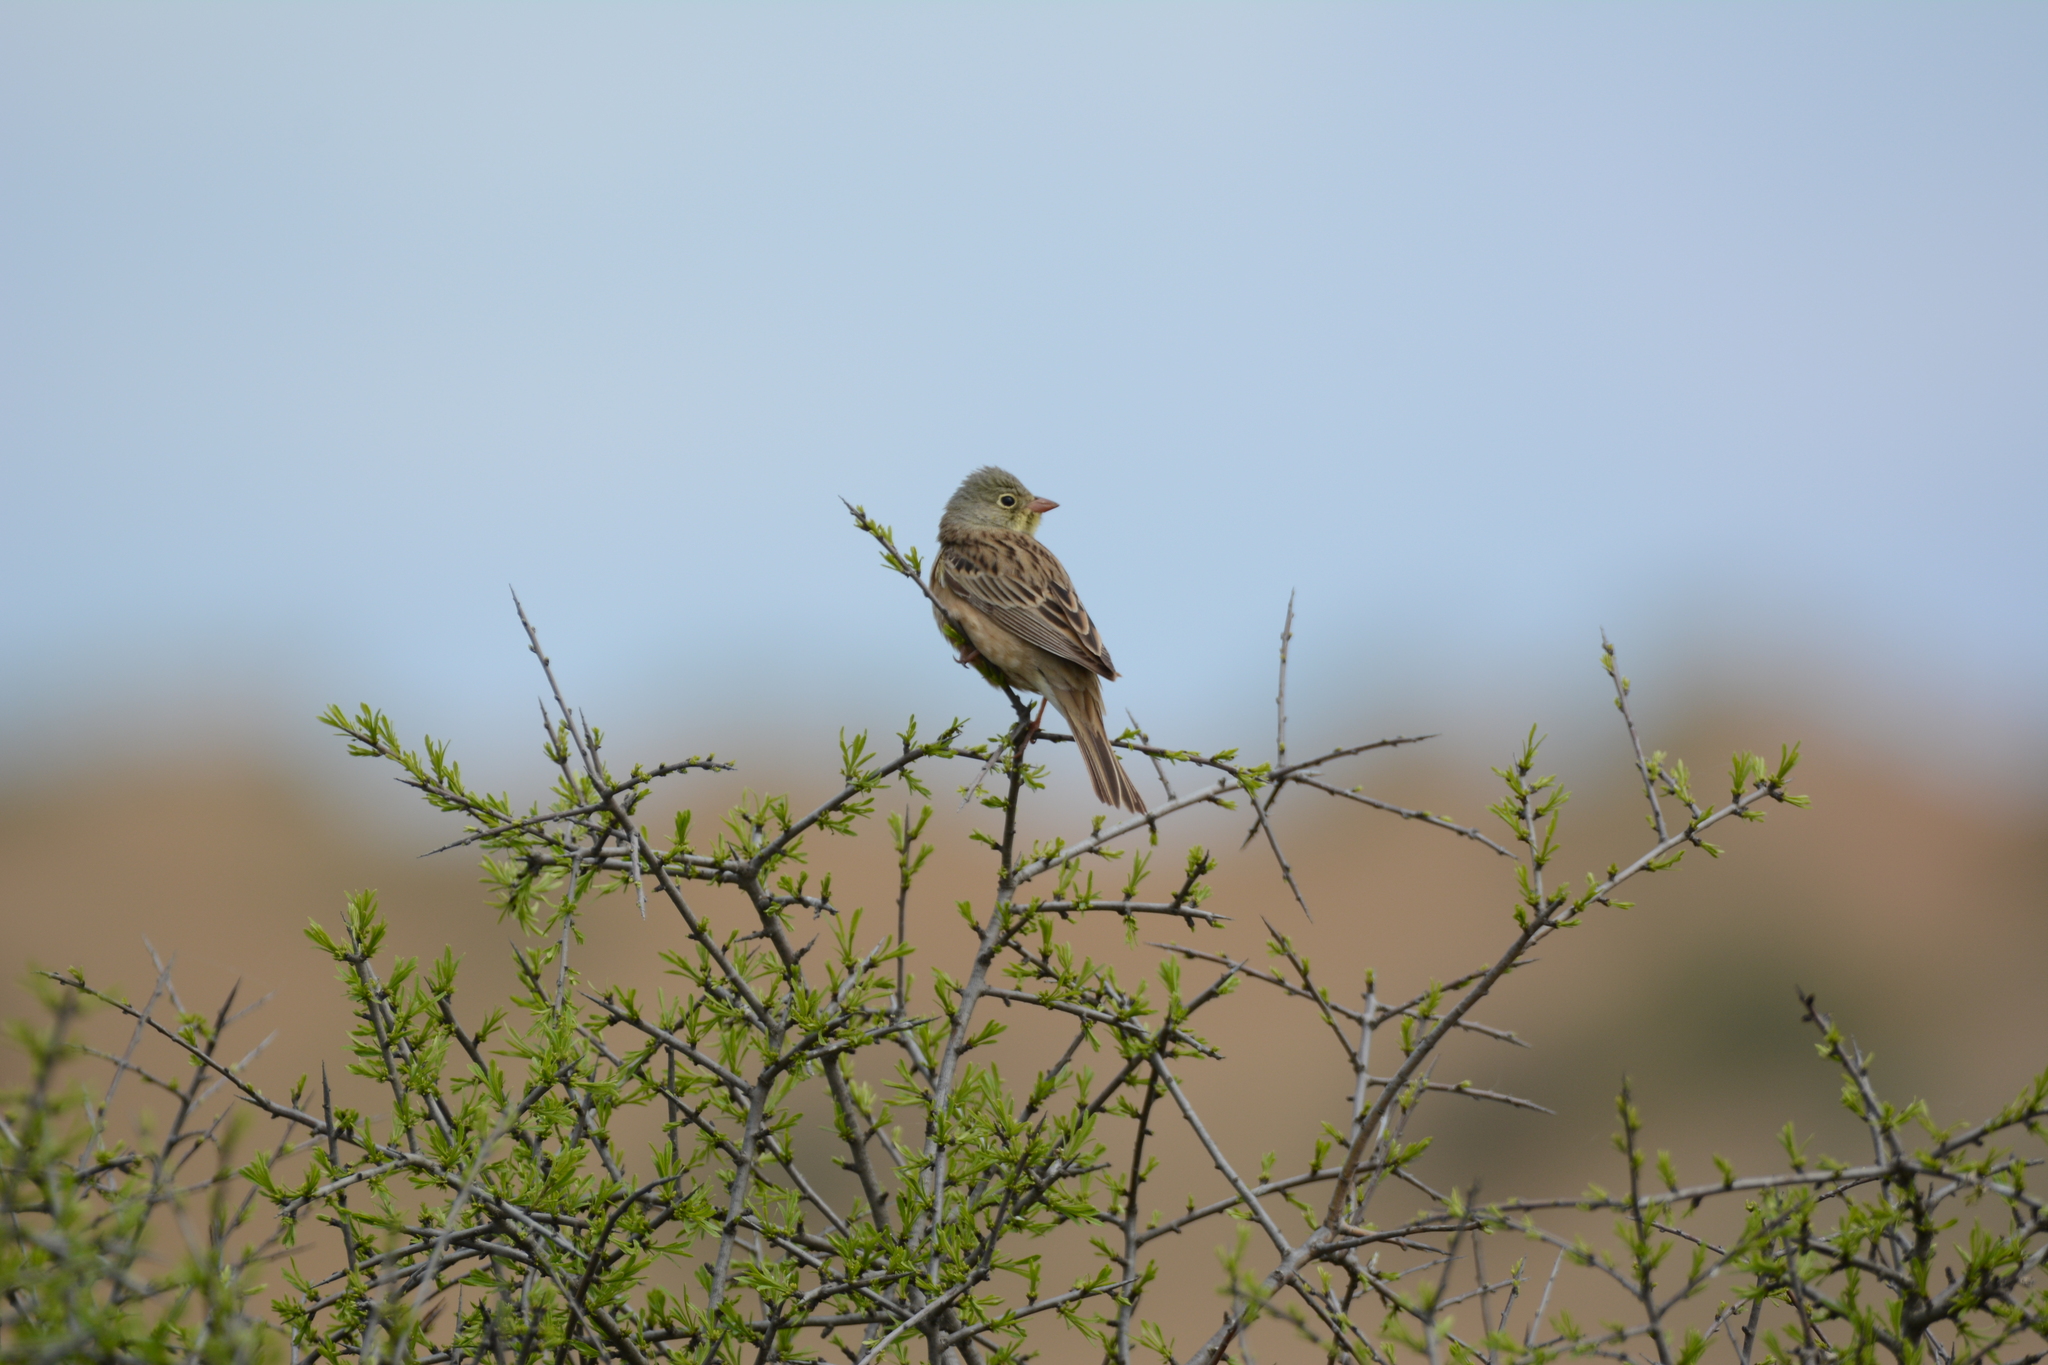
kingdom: Animalia
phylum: Chordata
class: Aves
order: Passeriformes
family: Emberizidae
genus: Emberiza
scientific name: Emberiza hortulana
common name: Ortolan bunting
